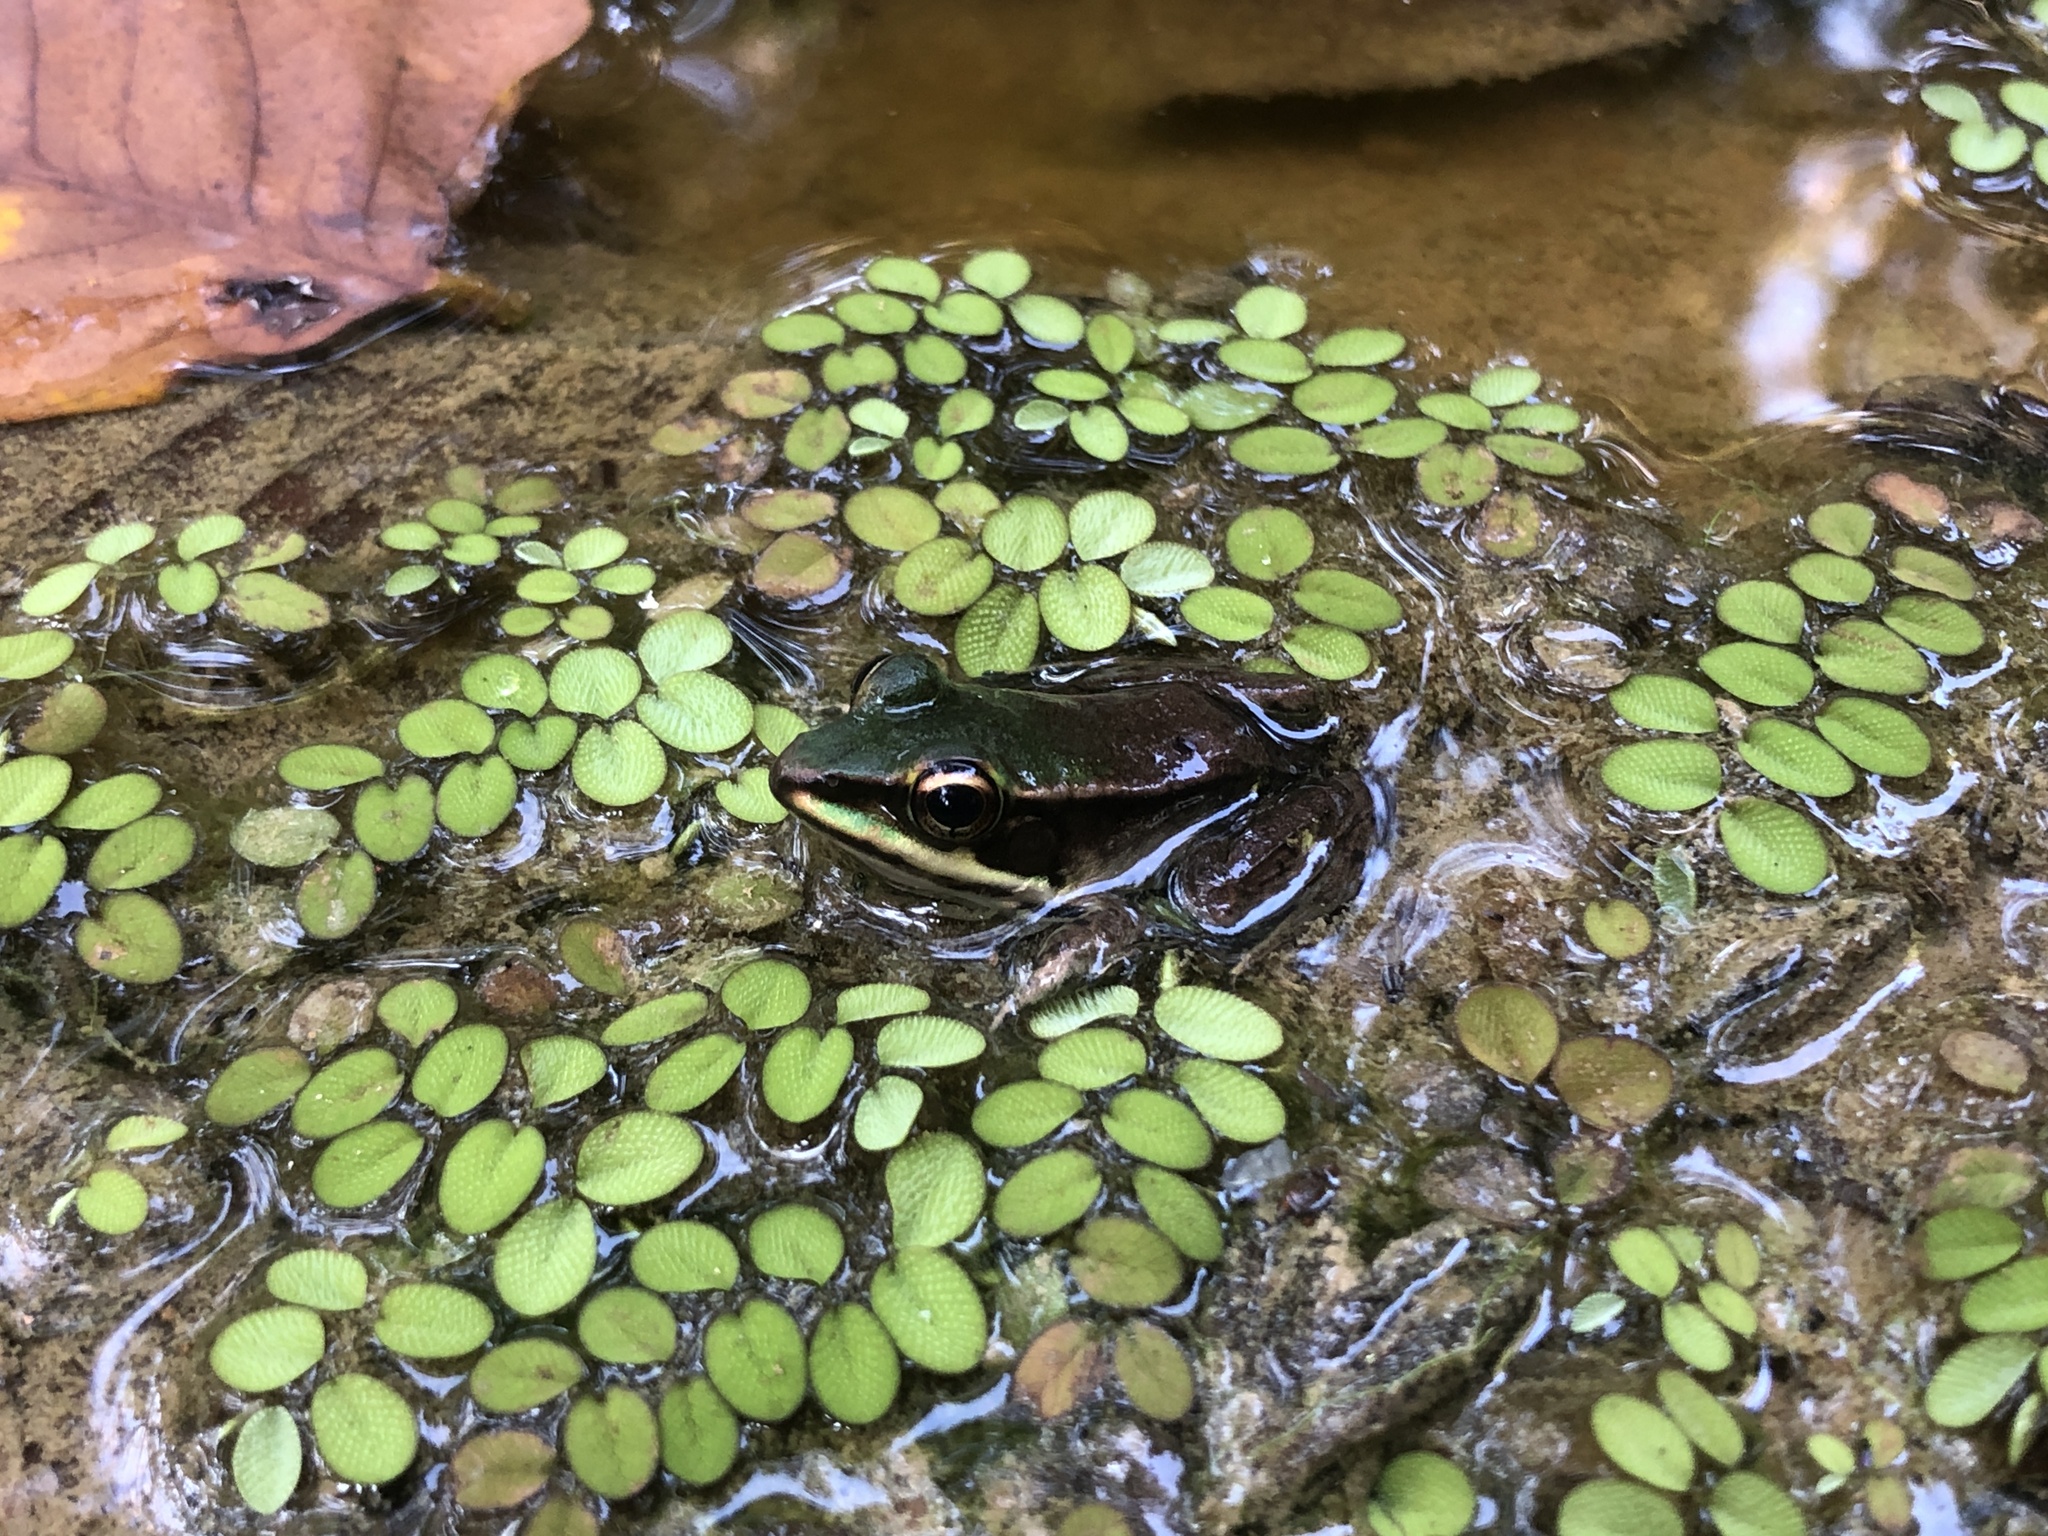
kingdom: Animalia
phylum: Chordata
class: Amphibia
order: Anura
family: Ranidae
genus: Lithobates
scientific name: Lithobates vaillanti
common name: Vaillant's frog
